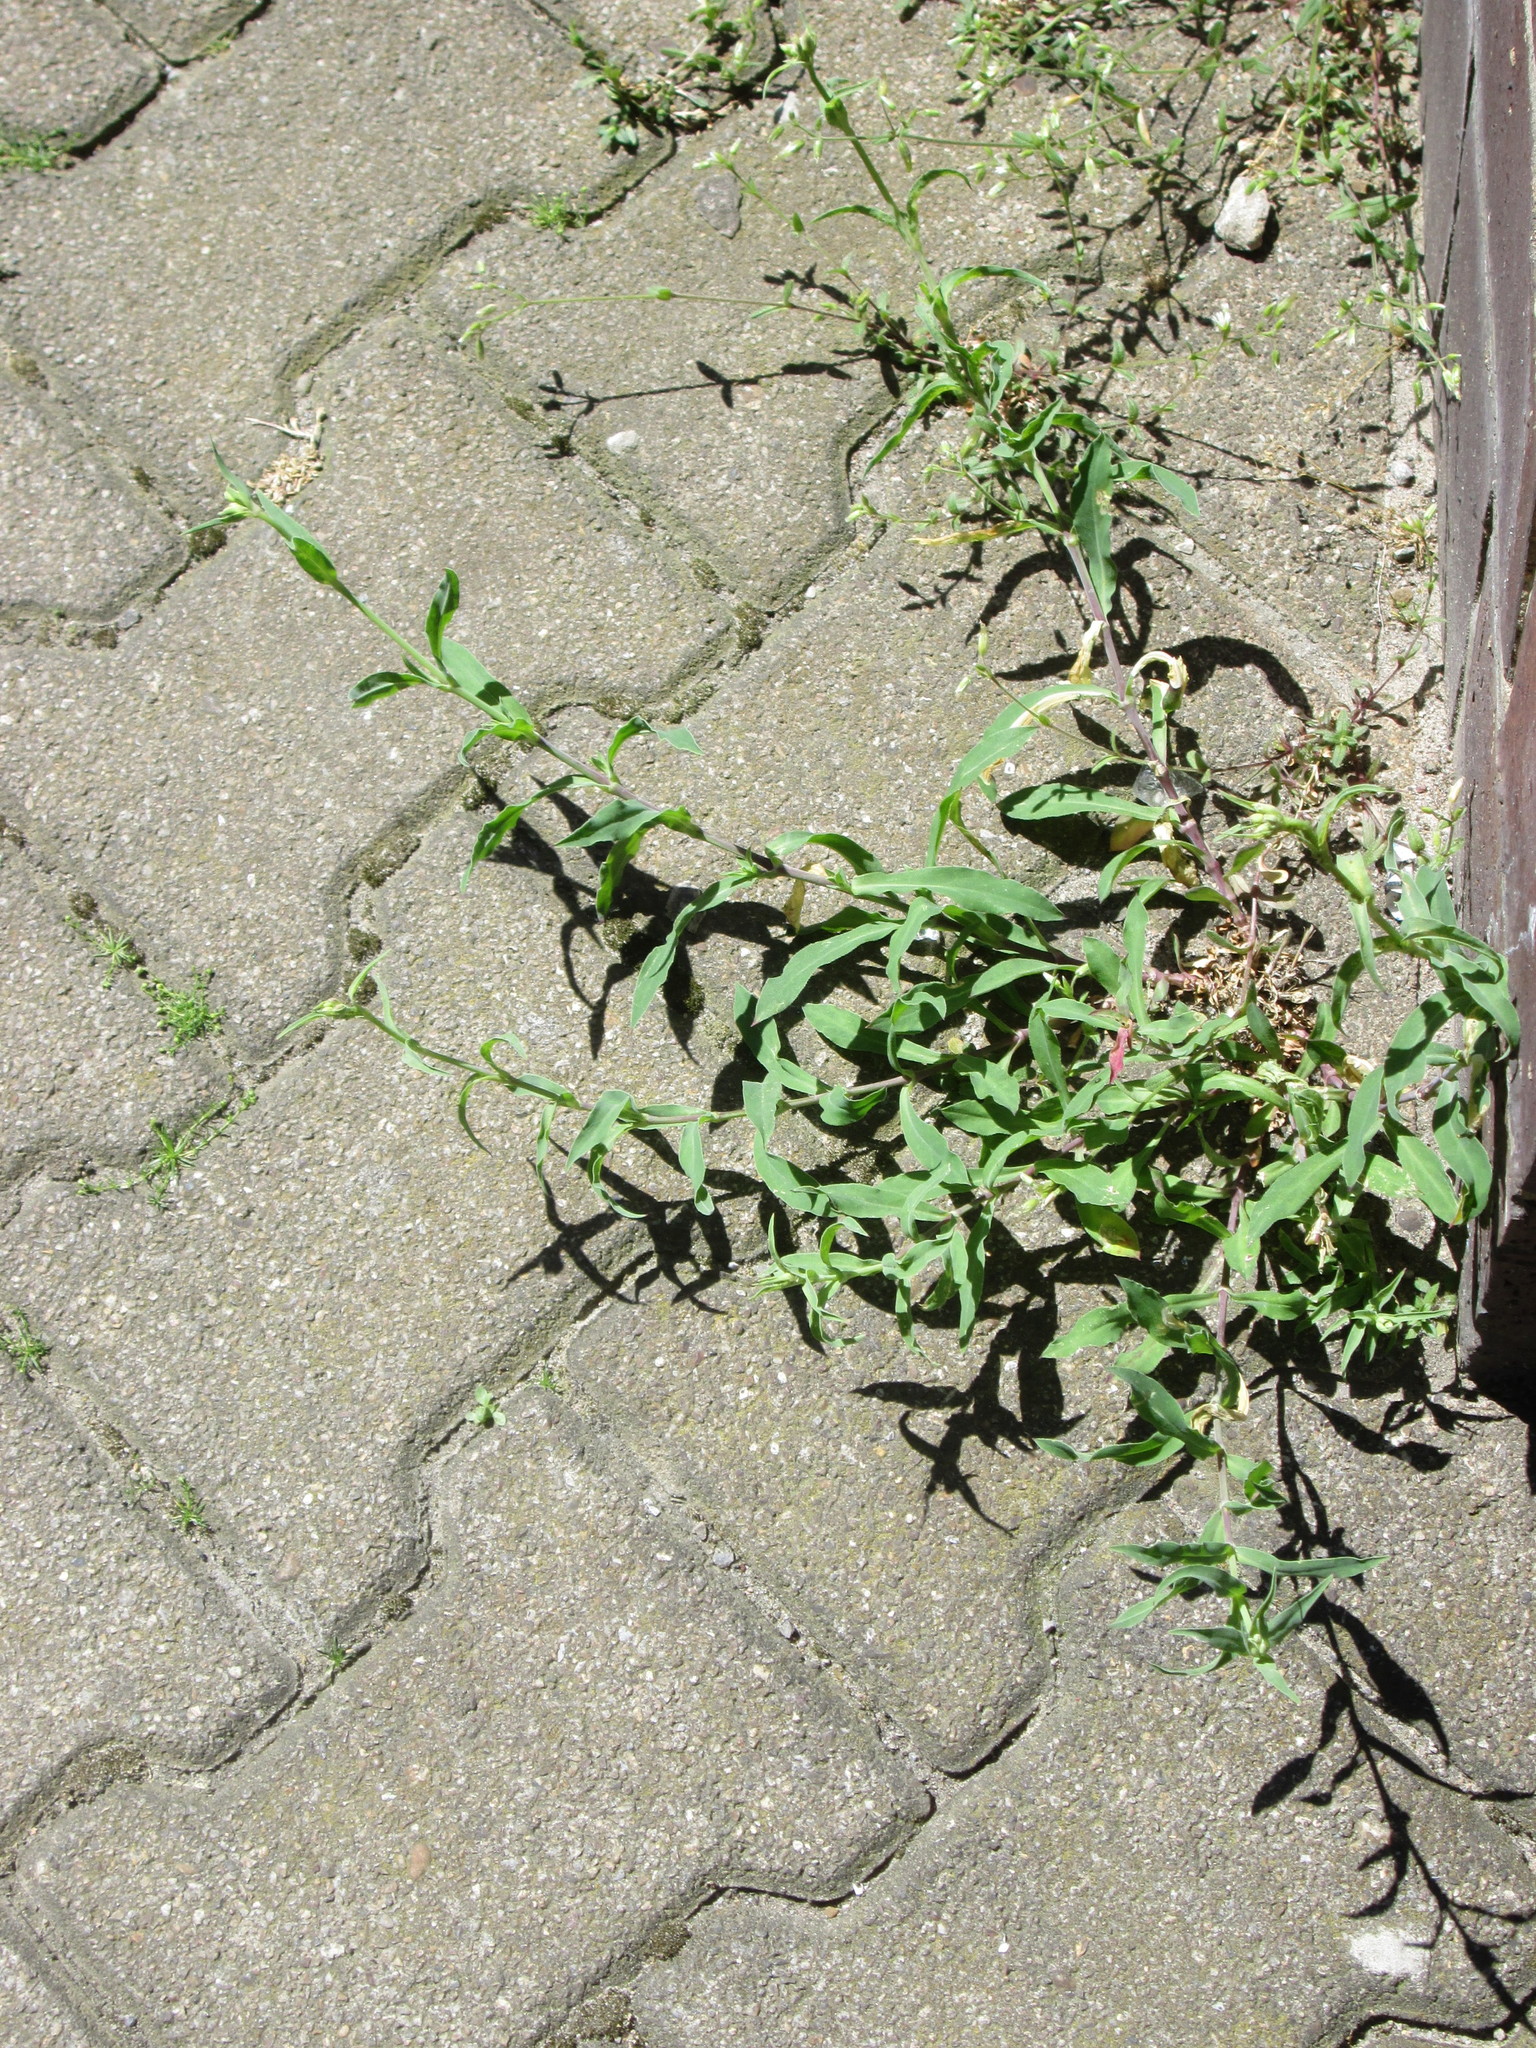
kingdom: Plantae
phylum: Tracheophyta
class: Magnoliopsida
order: Caryophyllales
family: Caryophyllaceae
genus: Silene
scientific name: Silene vulgaris
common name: Bladder campion
